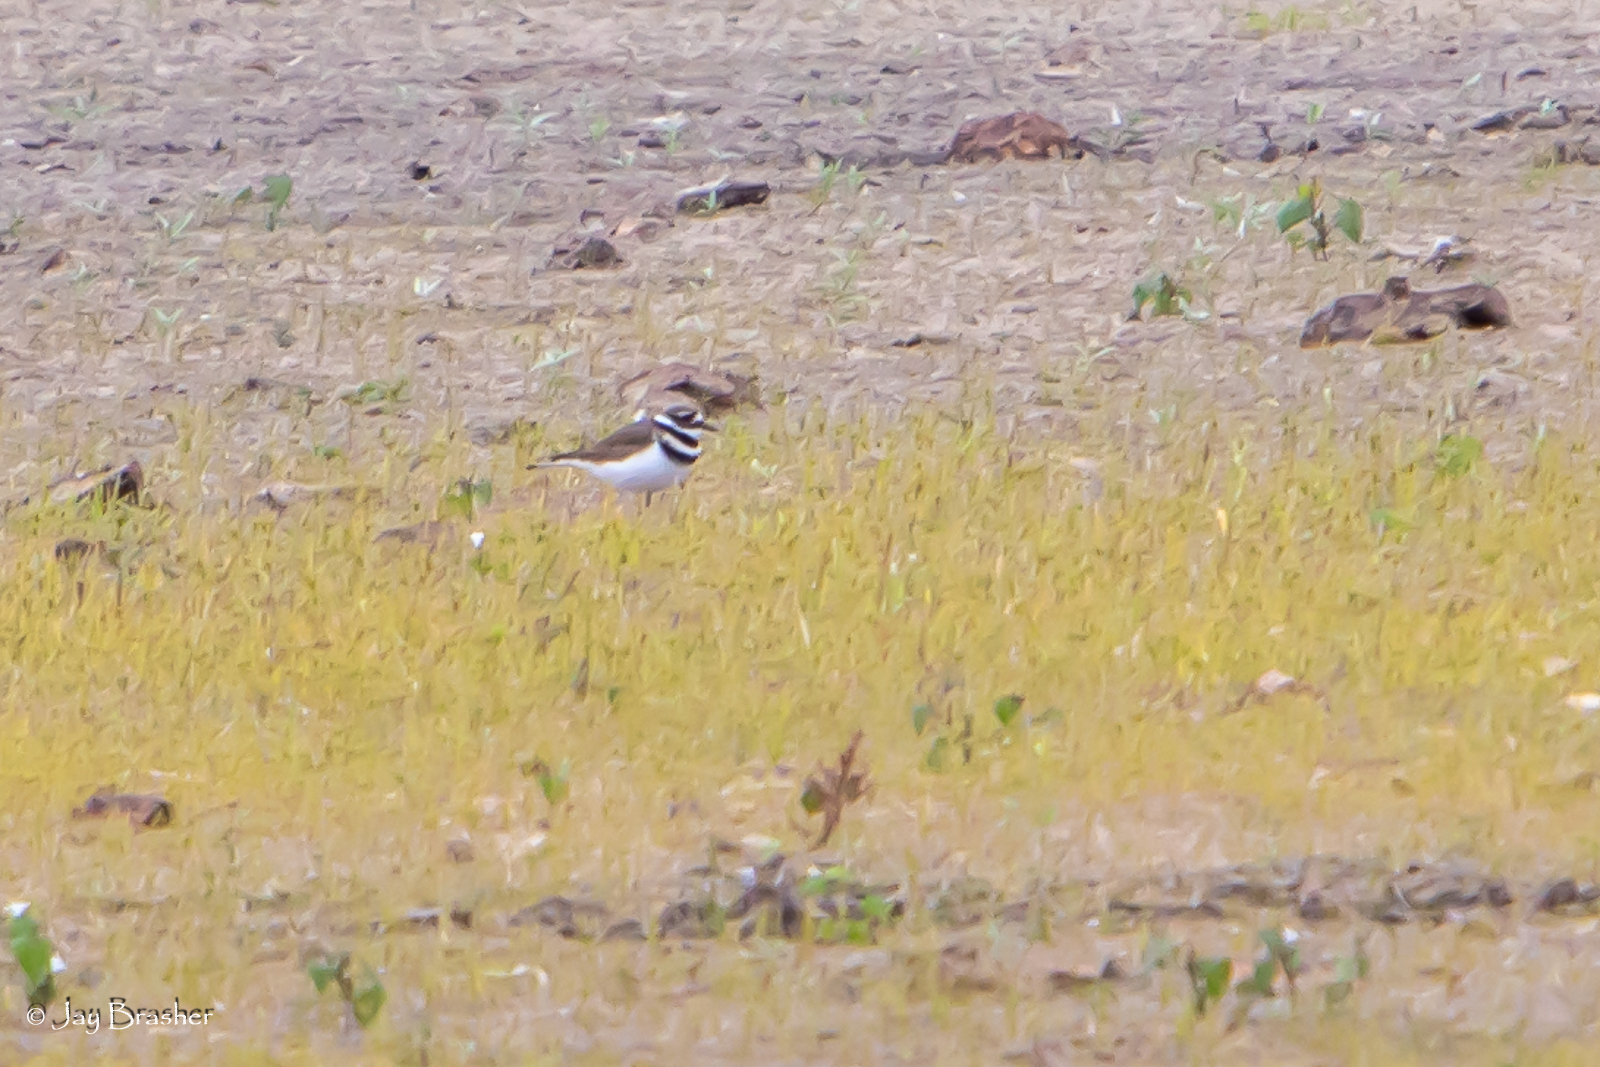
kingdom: Animalia
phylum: Chordata
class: Aves
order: Charadriiformes
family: Charadriidae
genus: Charadrius
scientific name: Charadrius vociferus
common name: Killdeer
